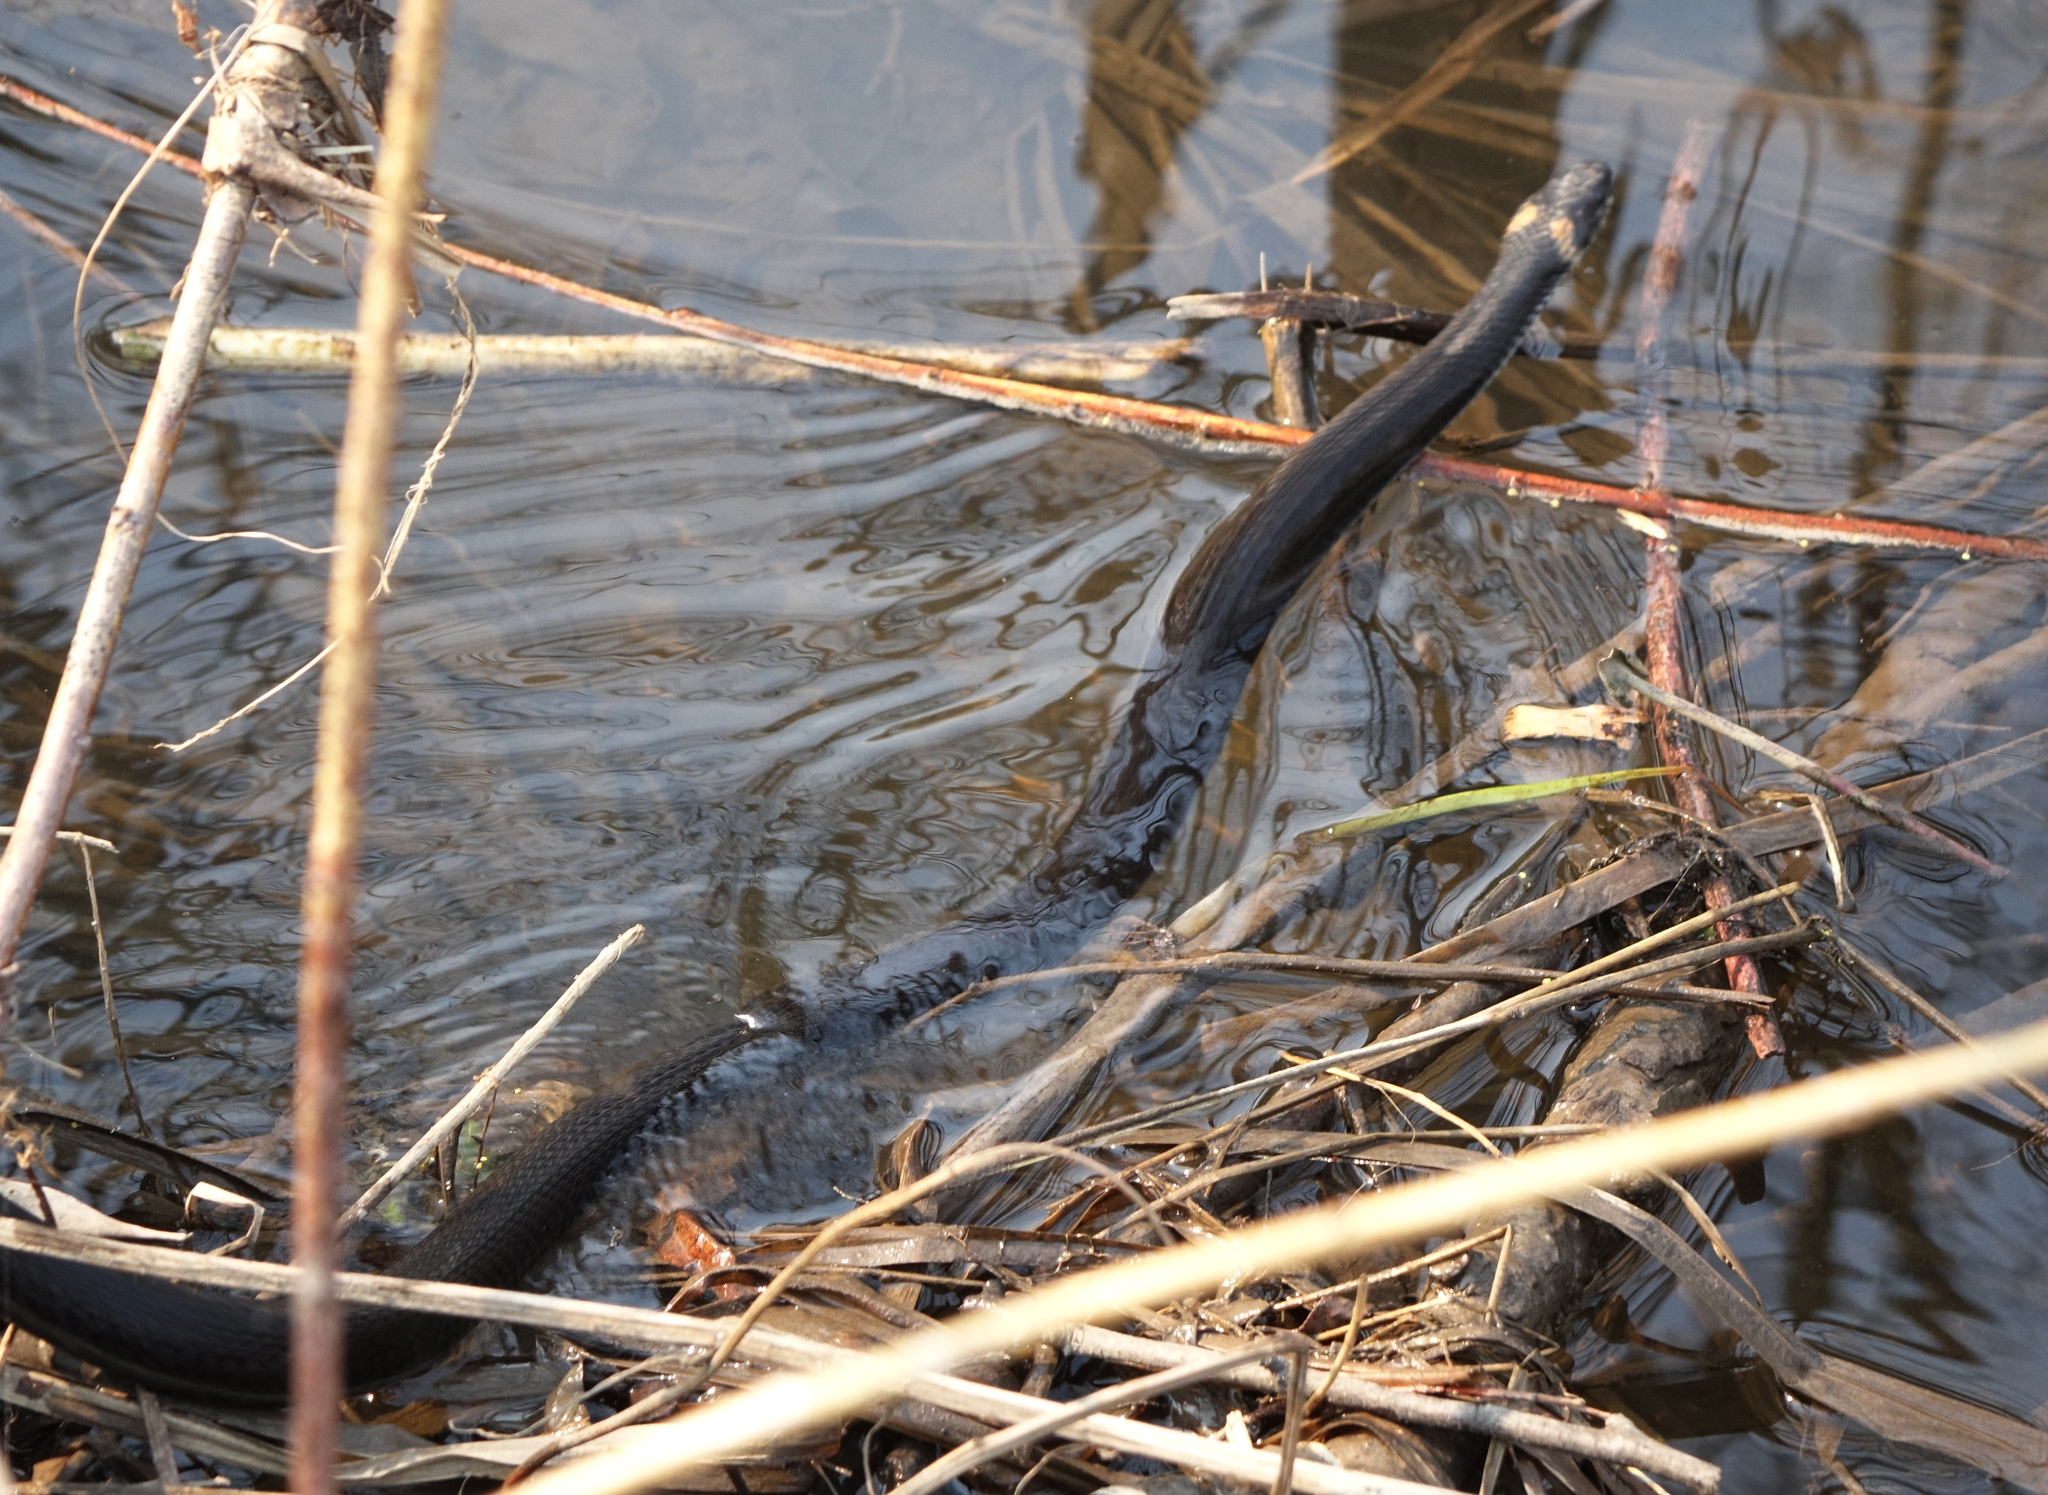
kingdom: Animalia
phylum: Chordata
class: Squamata
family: Colubridae
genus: Natrix
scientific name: Natrix natrix
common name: Grass snake
